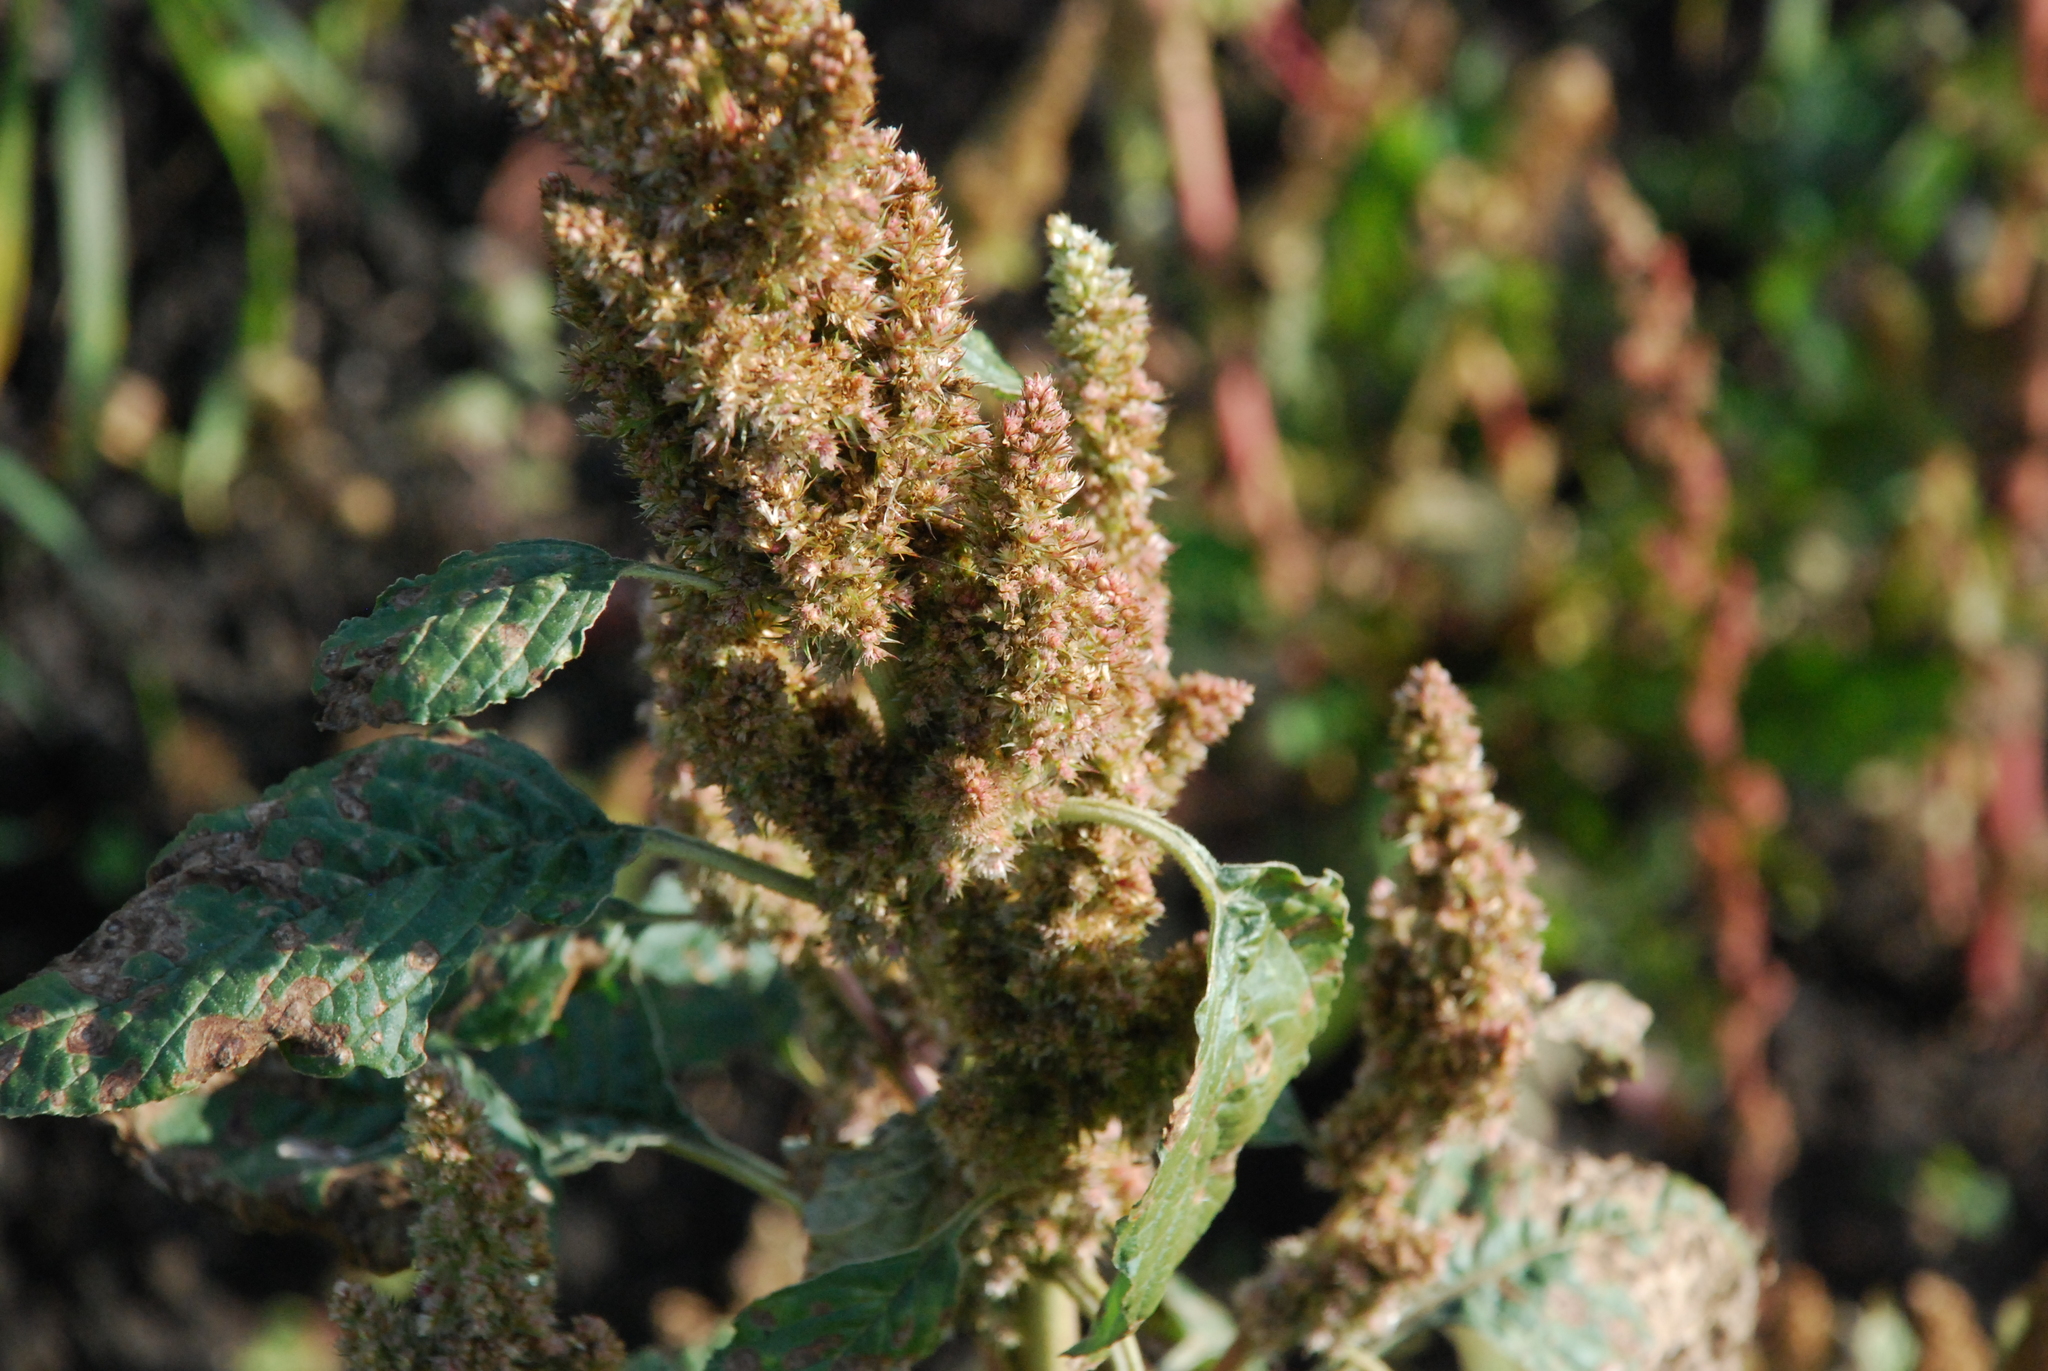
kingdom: Plantae
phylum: Tracheophyta
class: Magnoliopsida
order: Caryophyllales
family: Amaranthaceae
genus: Amaranthus
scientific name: Amaranthus retroflexus
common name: Redroot amaranth
